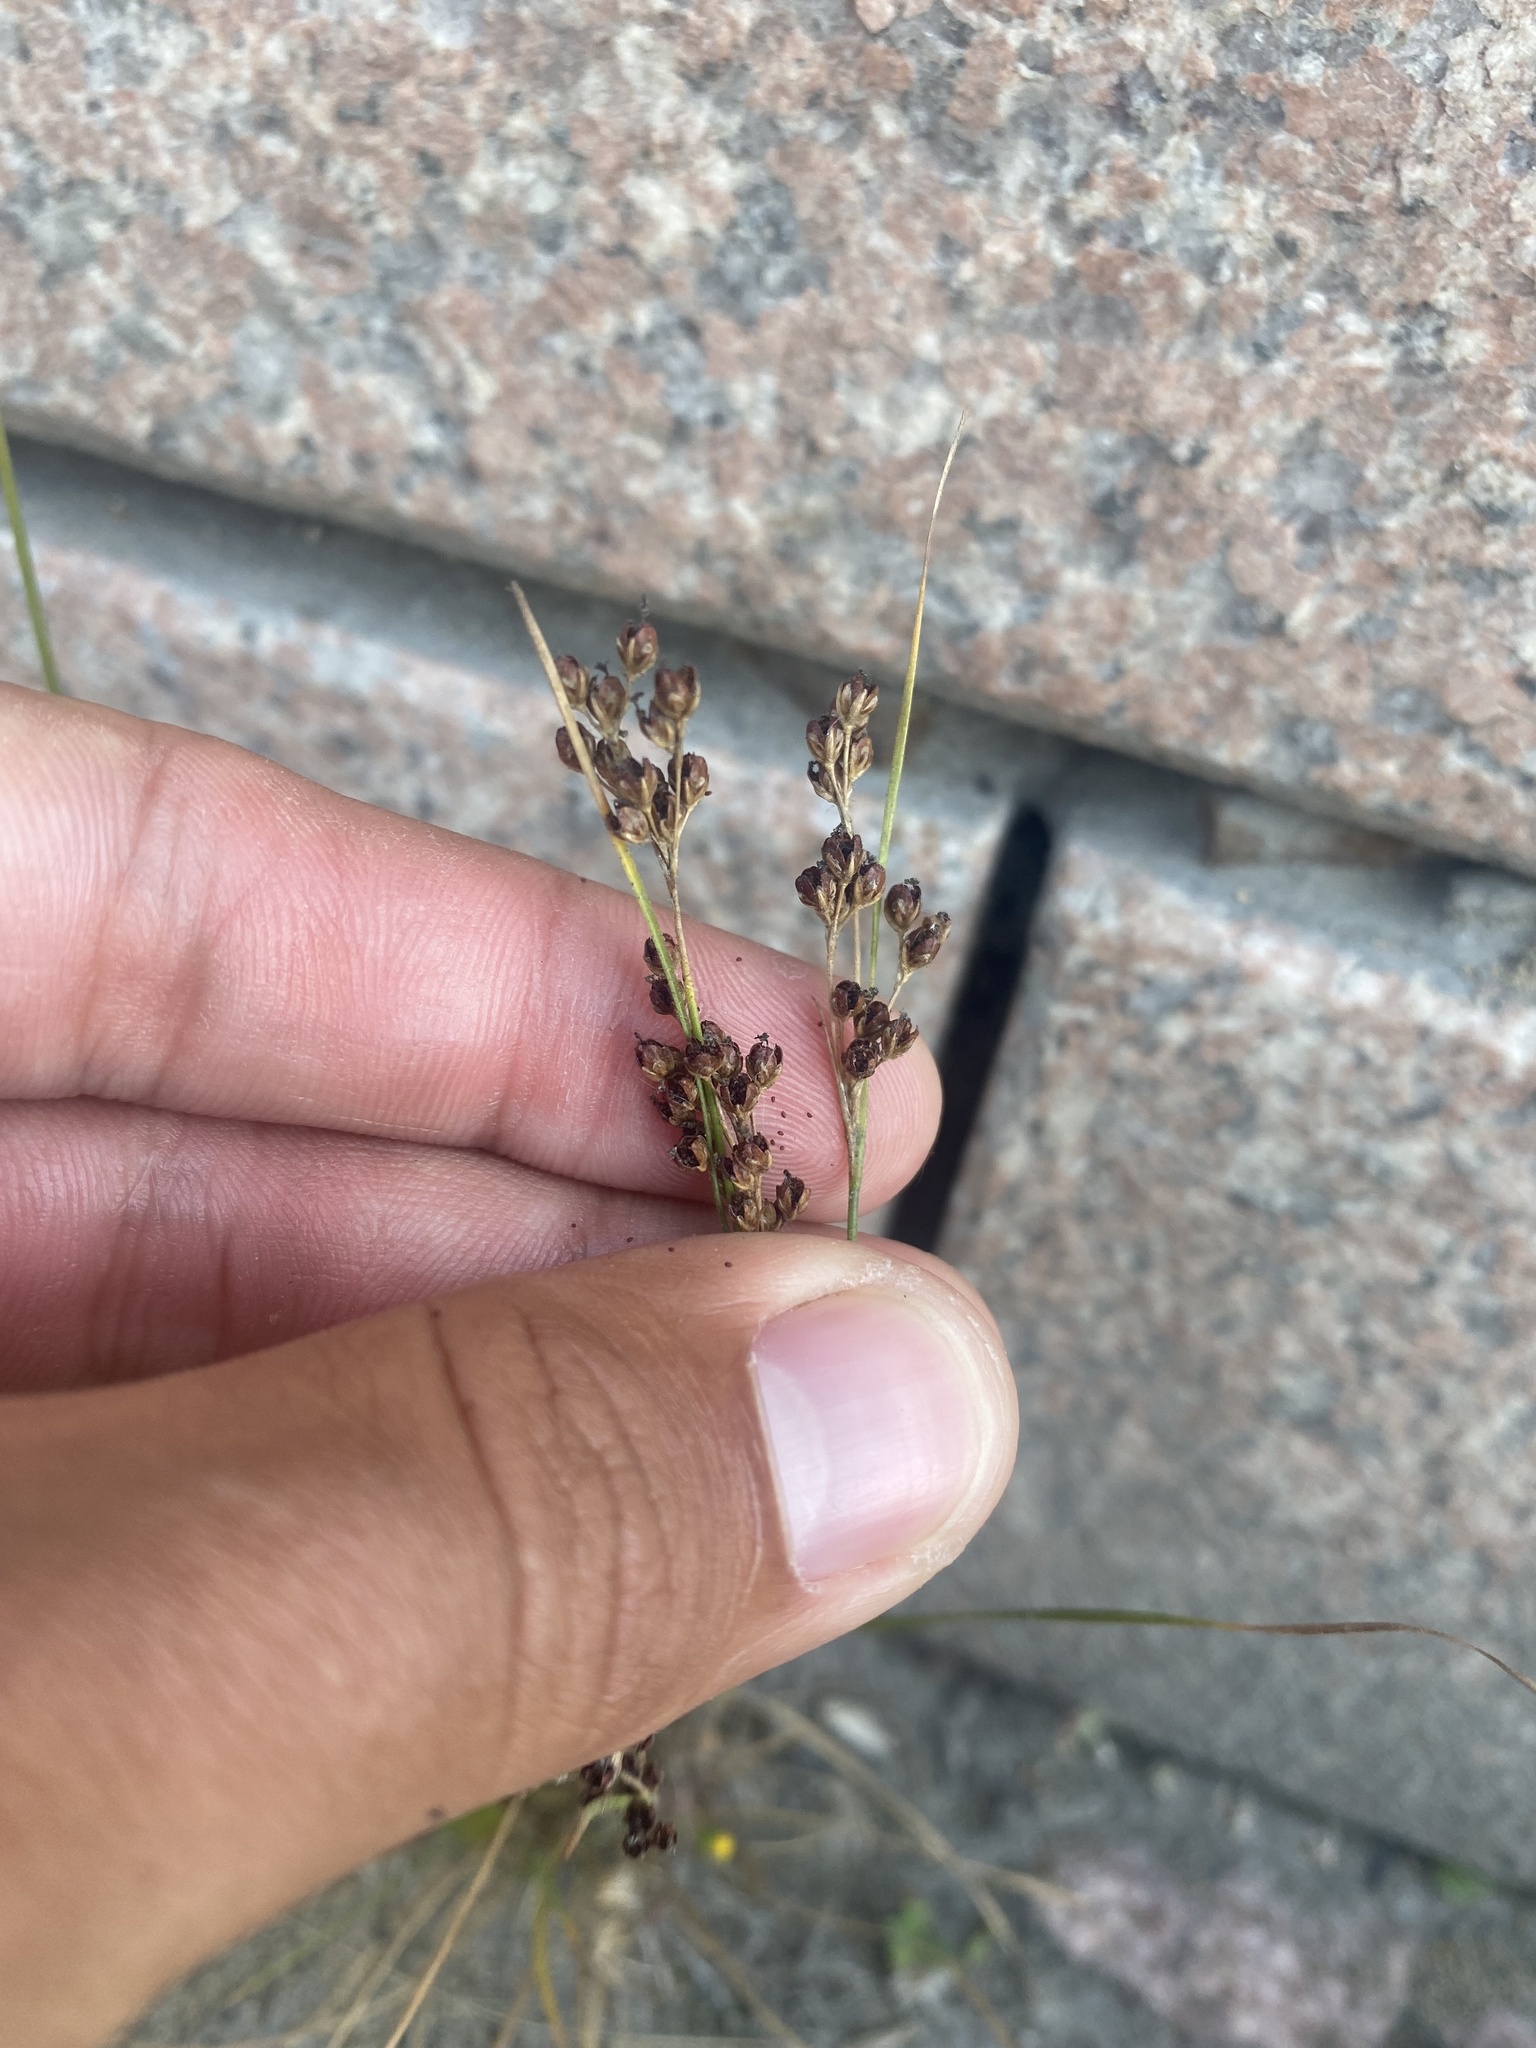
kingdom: Plantae
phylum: Tracheophyta
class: Liliopsida
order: Poales
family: Juncaceae
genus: Juncus
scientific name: Juncus compressus
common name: Round-fruited rush
